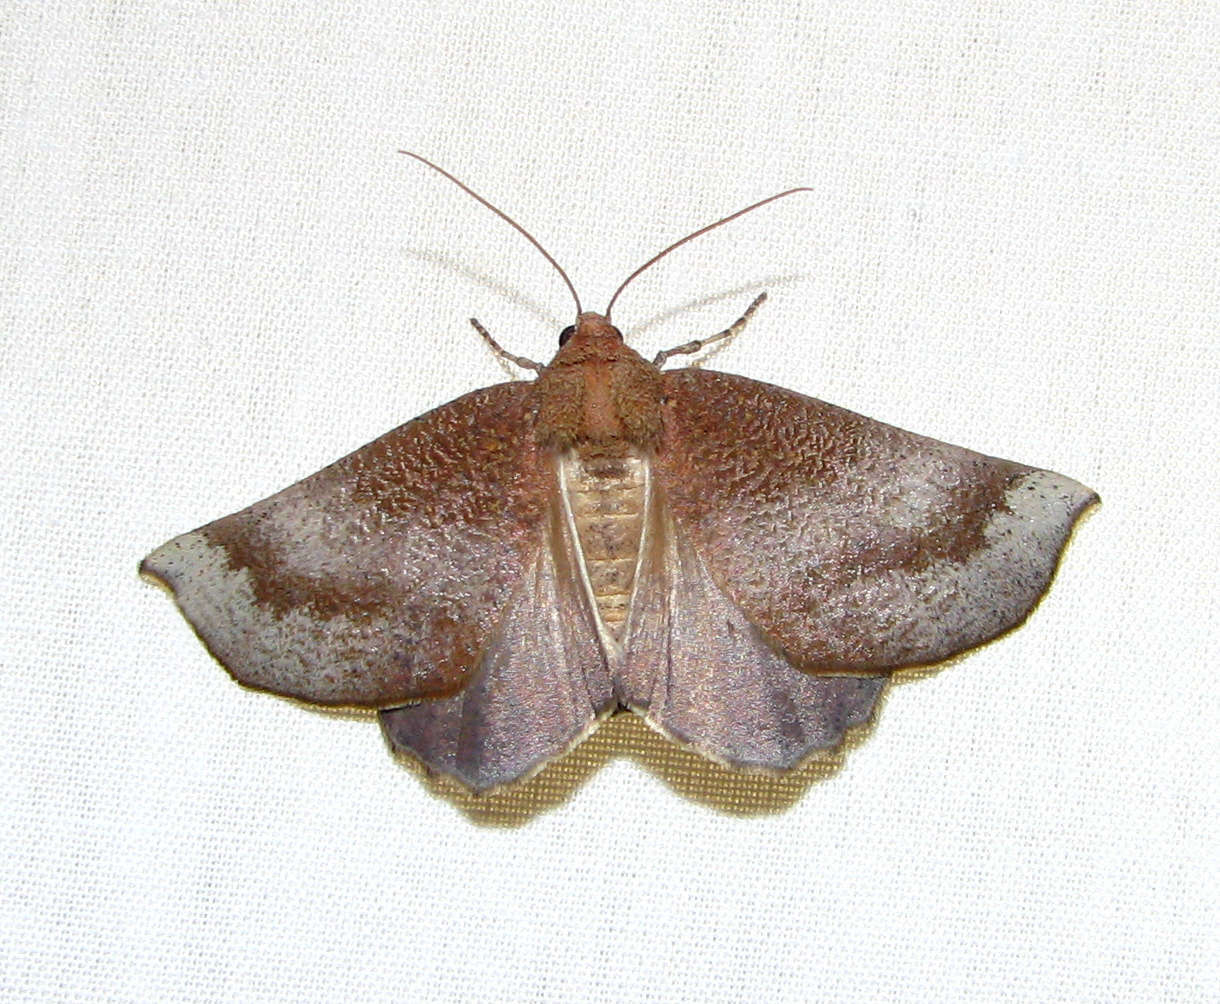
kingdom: Animalia
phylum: Arthropoda
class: Insecta
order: Lepidoptera
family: Geometridae
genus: Mnesampela
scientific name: Mnesampela comarcha
